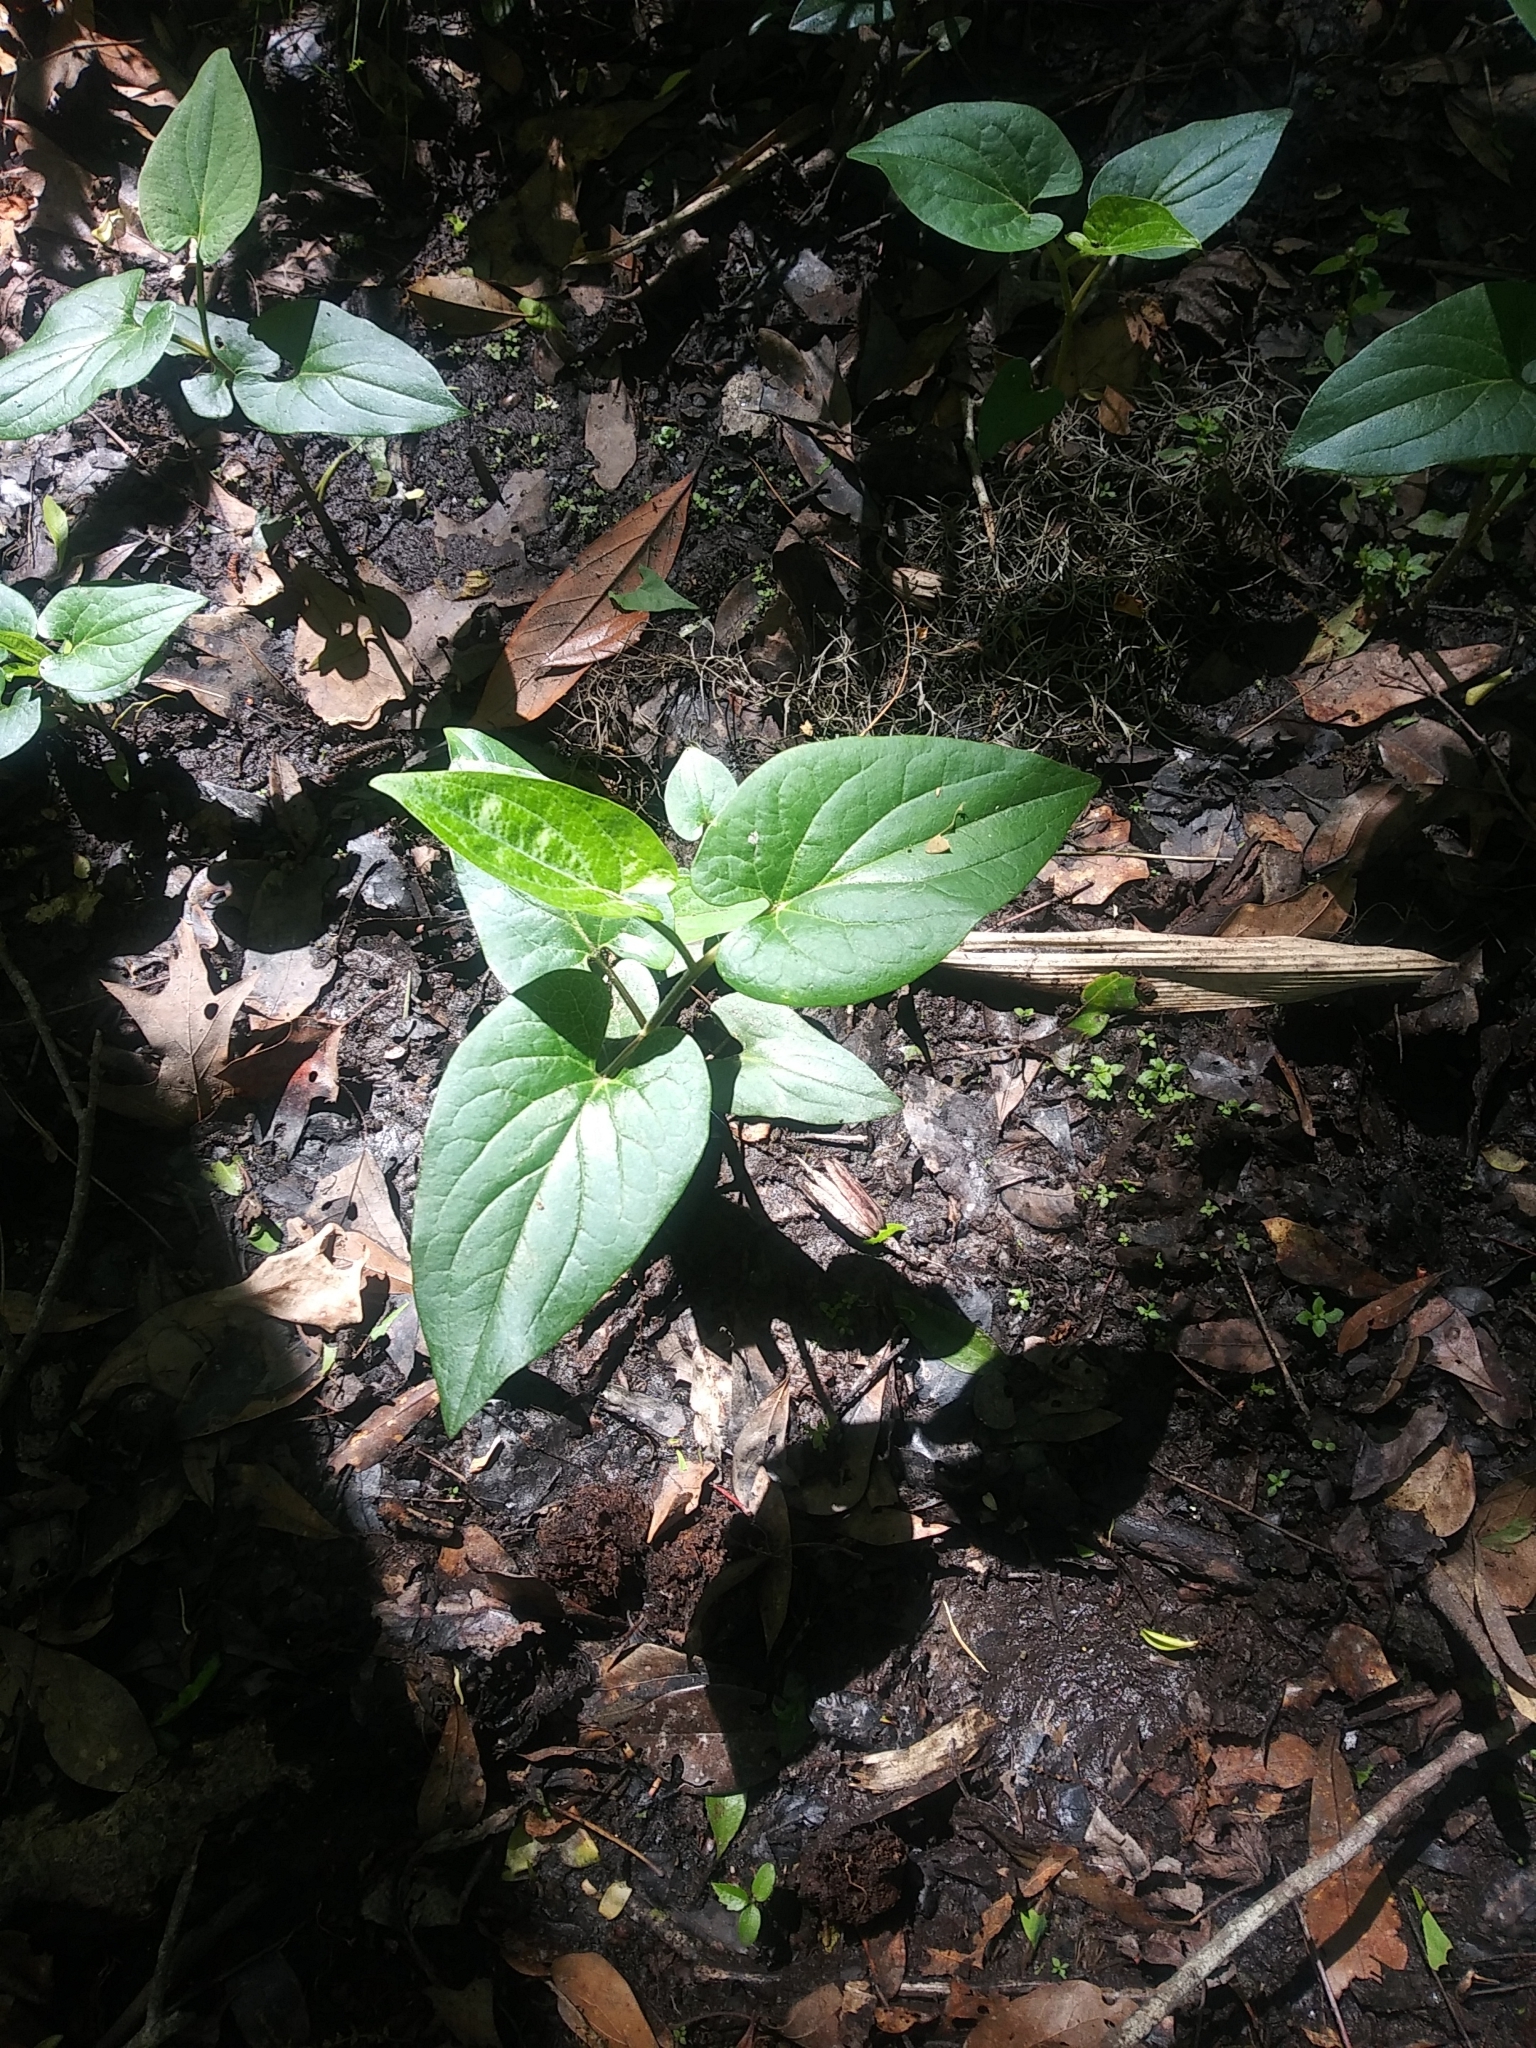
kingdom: Plantae
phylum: Tracheophyta
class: Magnoliopsida
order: Piperales
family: Saururaceae
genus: Saururus
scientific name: Saururus cernuus
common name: Lizard's-tail
